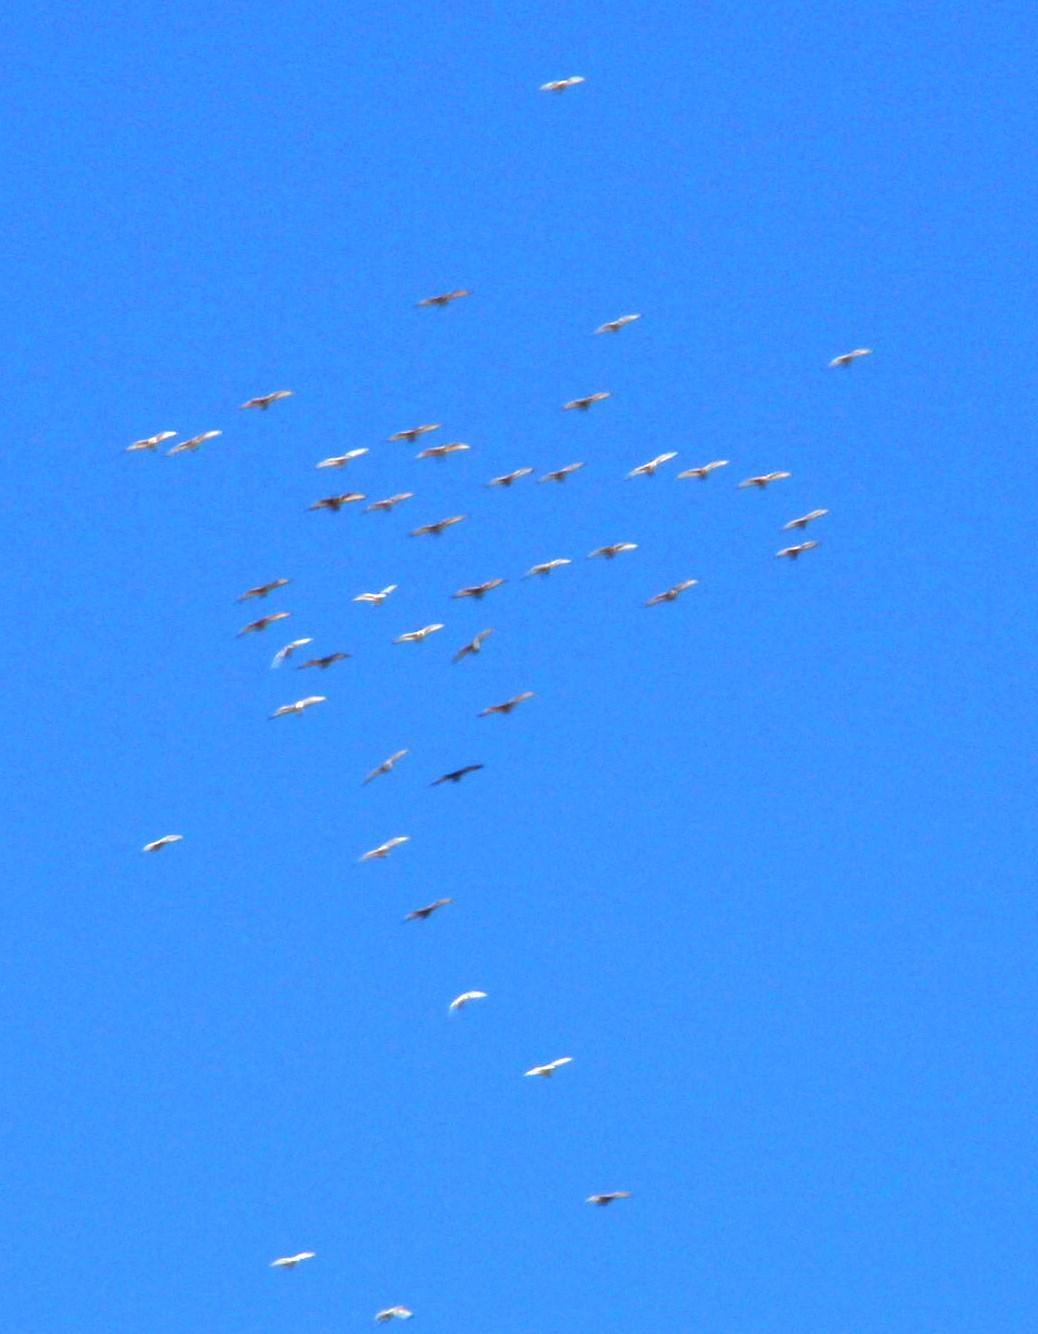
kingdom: Animalia
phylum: Chordata
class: Aves
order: Pelecaniformes
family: Threskiornithidae
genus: Threskiornis
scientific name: Threskiornis aethiopicus
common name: Sacred ibis
